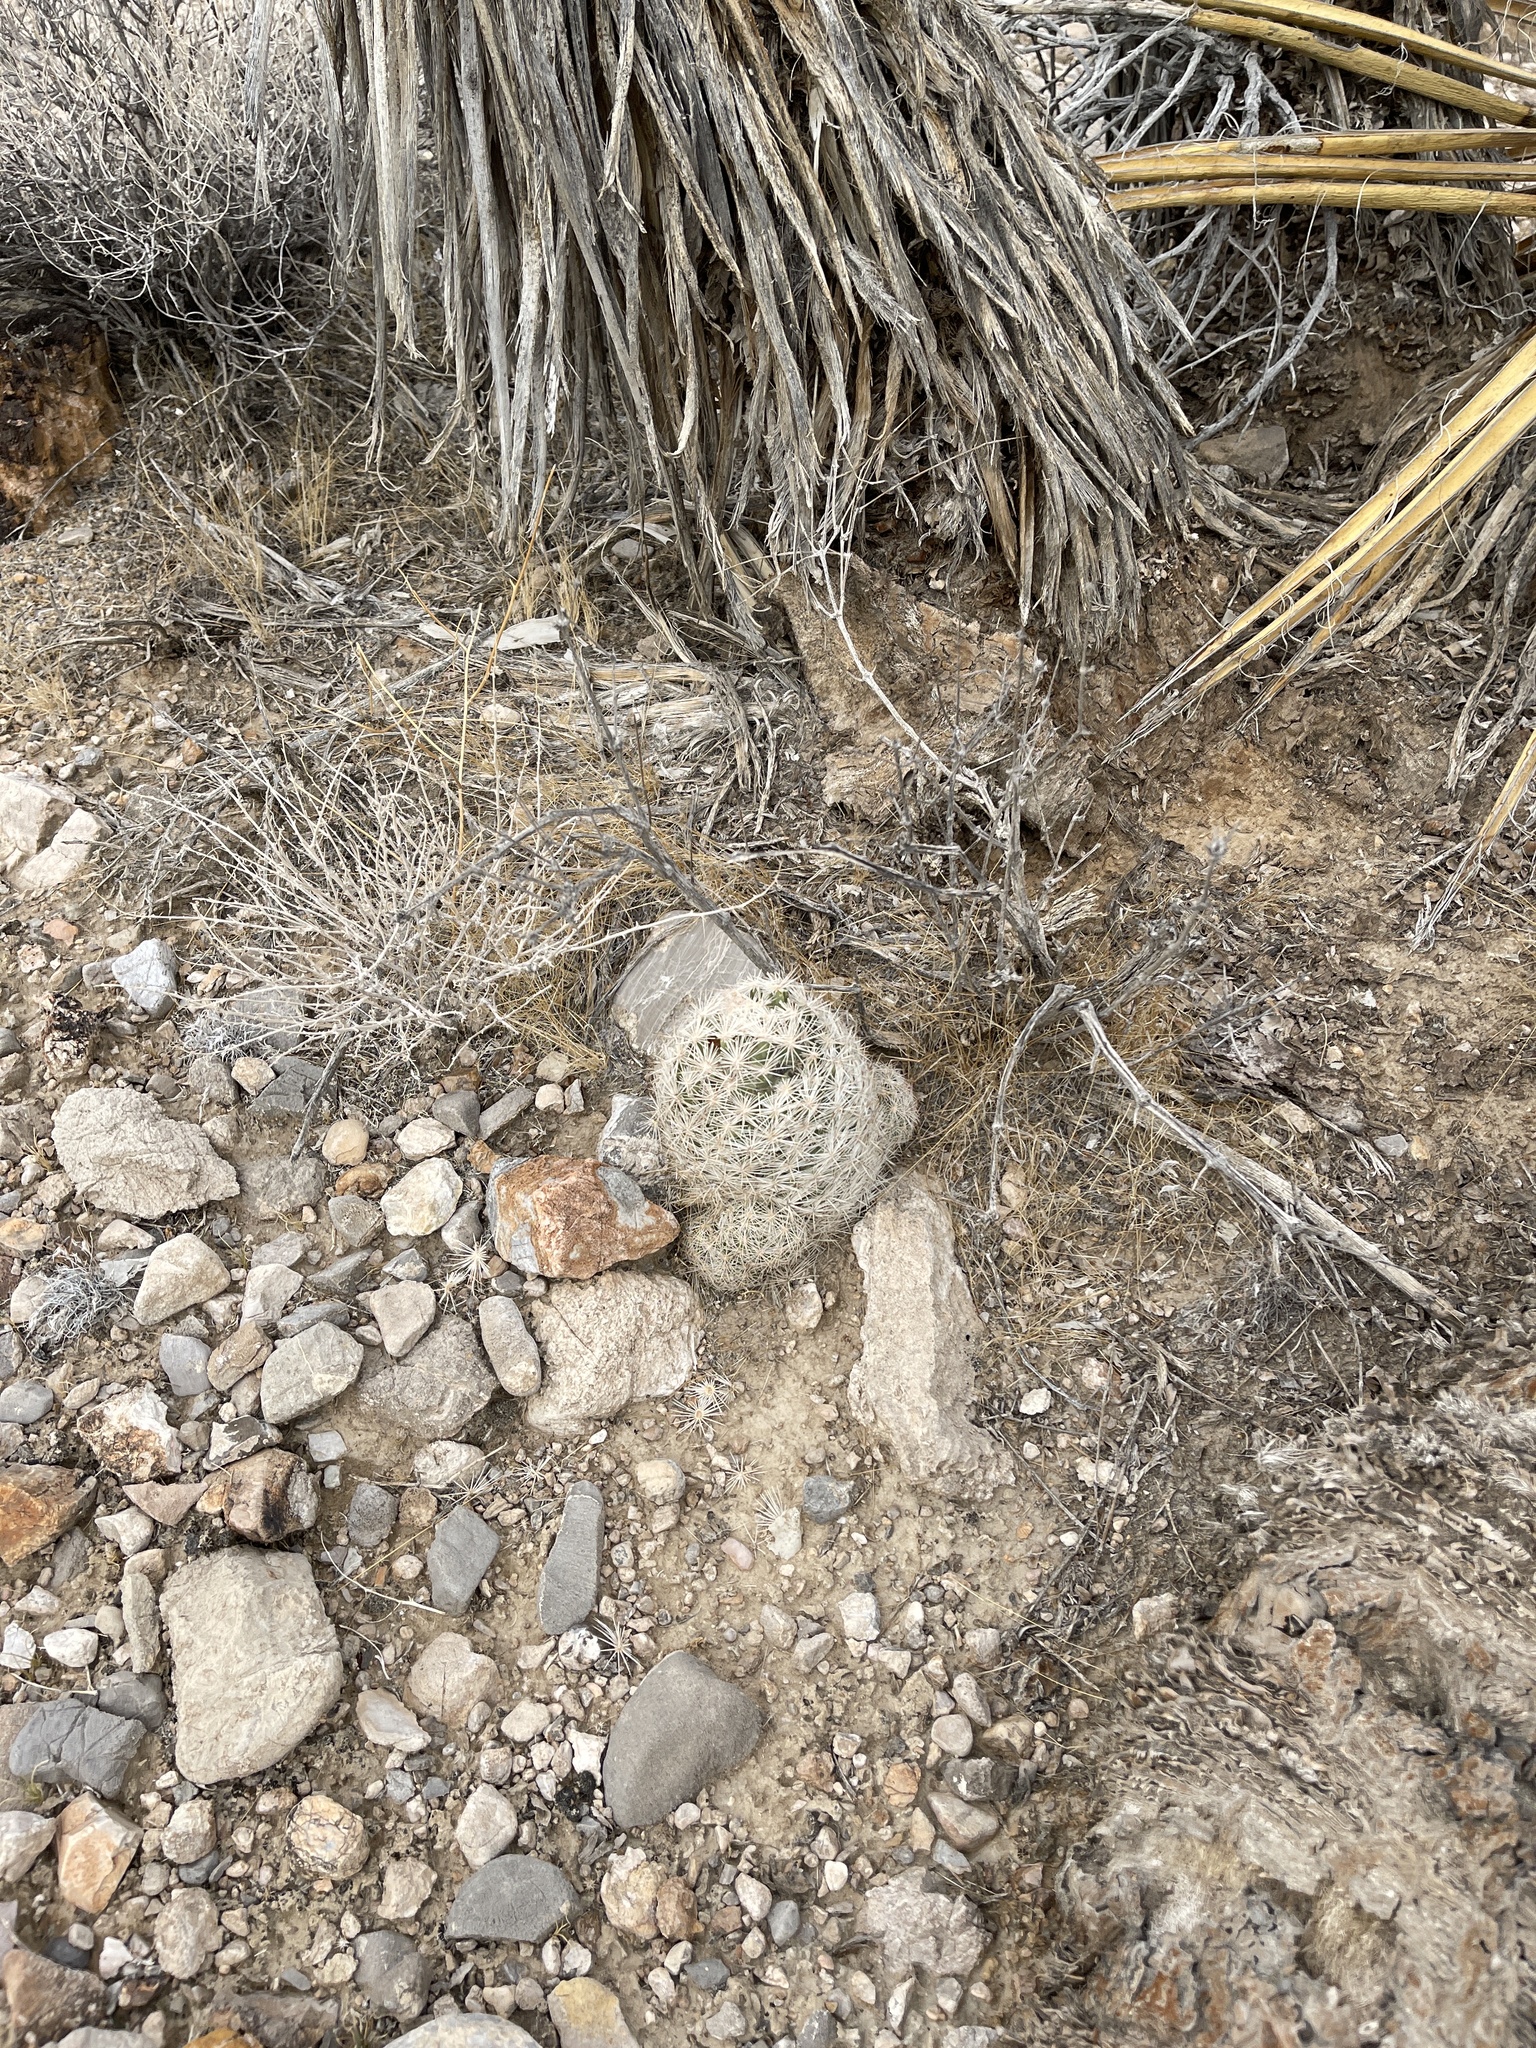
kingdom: Plantae
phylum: Tracheophyta
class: Magnoliopsida
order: Caryophyllales
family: Cactaceae
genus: Pelecyphora
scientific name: Pelecyphora dasyacantha
